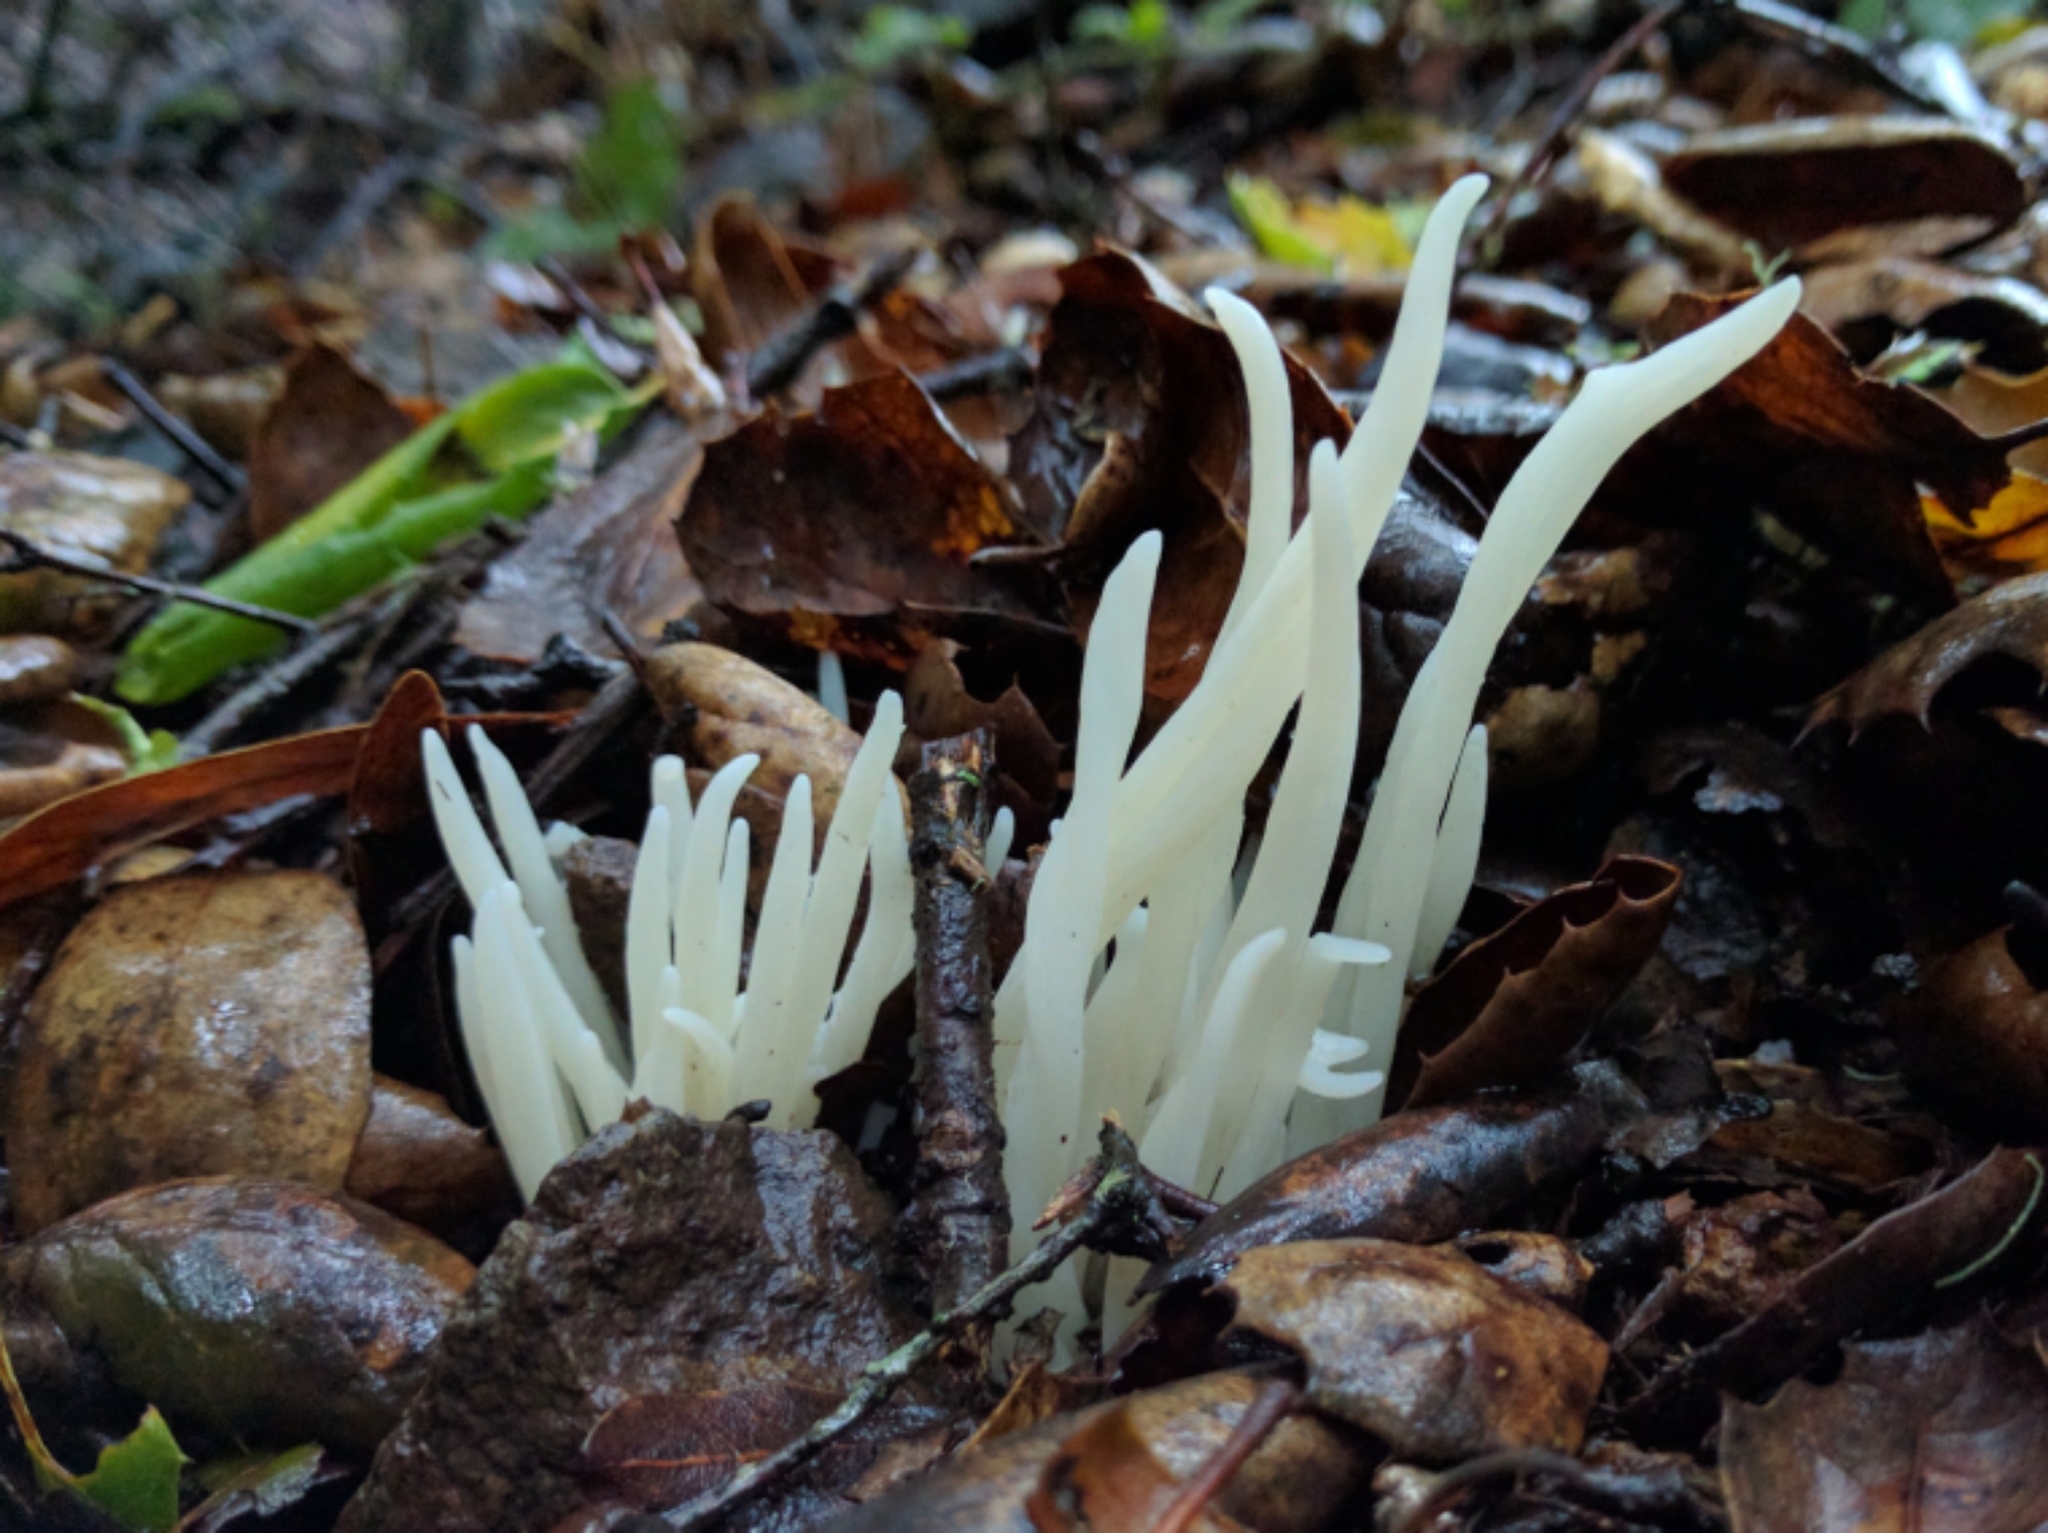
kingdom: Fungi
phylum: Basidiomycota
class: Agaricomycetes
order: Agaricales
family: Clavariaceae
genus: Clavaria
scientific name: Clavaria fragilis
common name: White spindles
